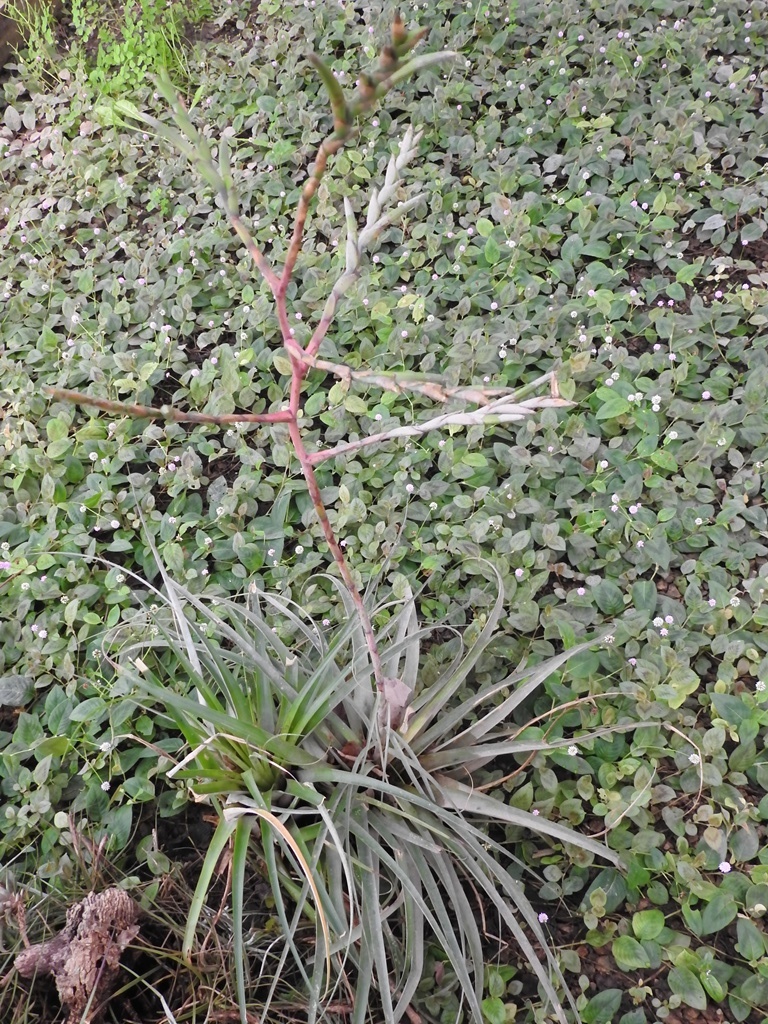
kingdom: Plantae
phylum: Tracheophyta
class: Liliopsida
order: Poales
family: Bromeliaceae
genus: Tillandsia
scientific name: Tillandsia limbata
